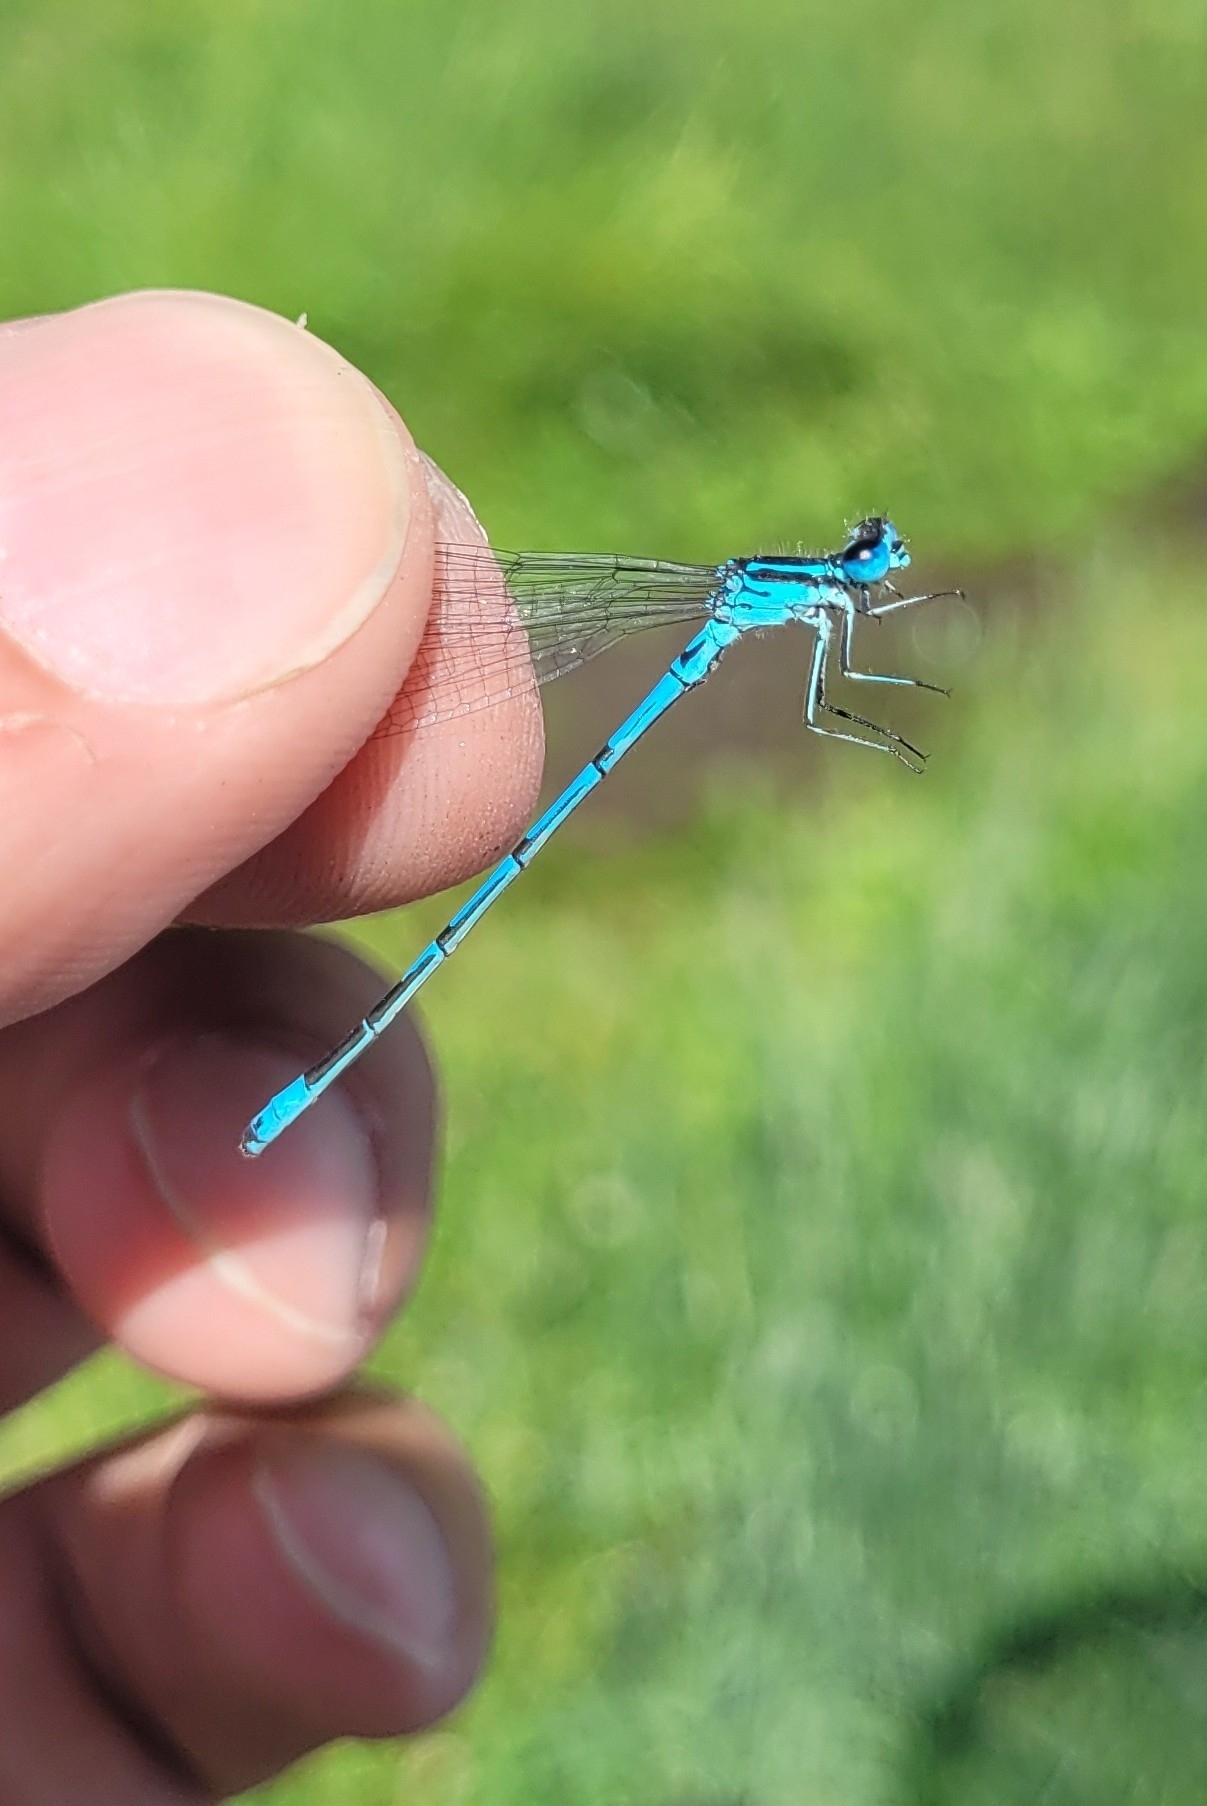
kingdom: Animalia
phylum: Arthropoda
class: Insecta
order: Odonata
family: Coenagrionidae
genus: Coenagrion
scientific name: Coenagrion puella
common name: Azure damselfly
